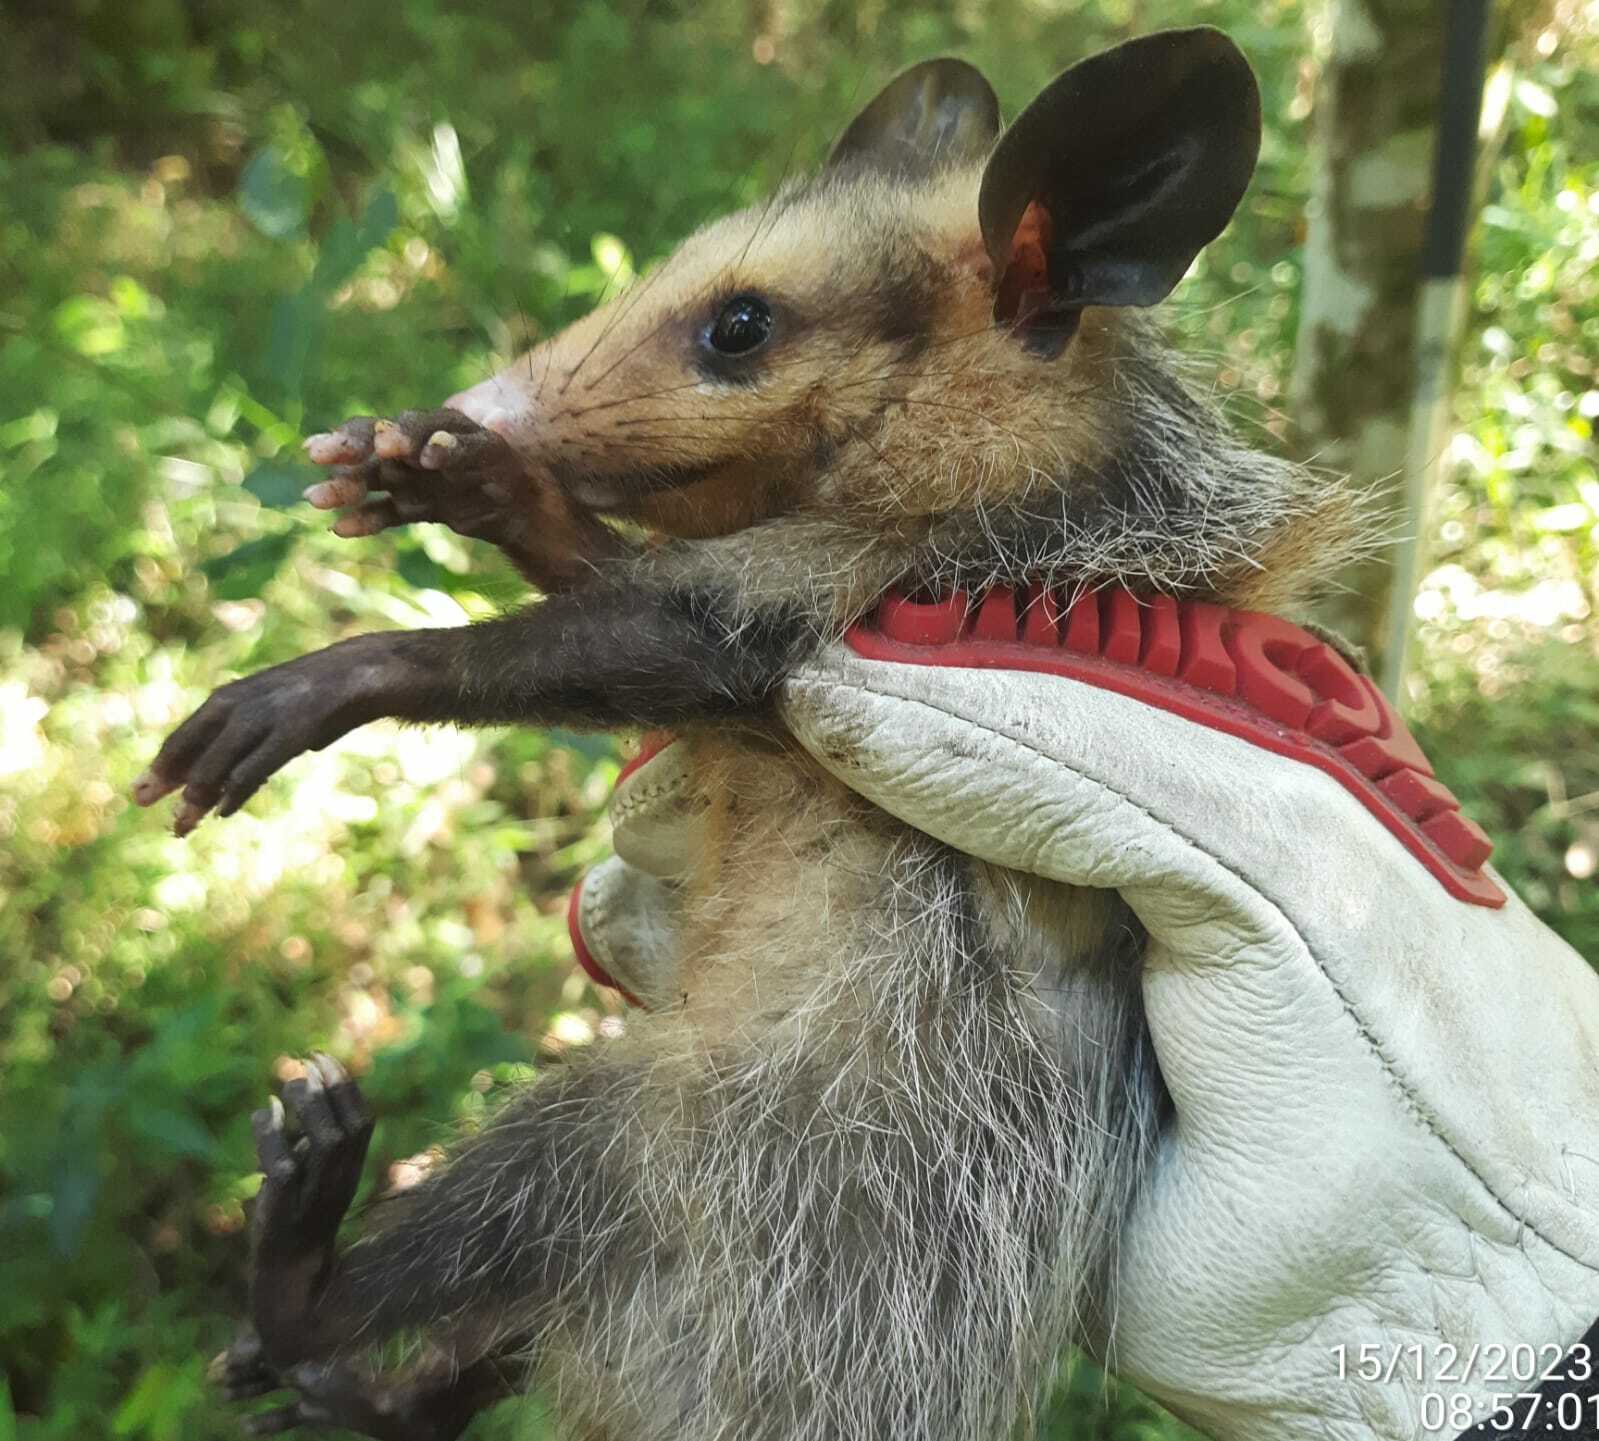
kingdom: Animalia
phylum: Chordata
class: Mammalia
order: Didelphimorphia
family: Didelphidae
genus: Didelphis
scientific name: Didelphis aurita
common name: Big-eared opossum
